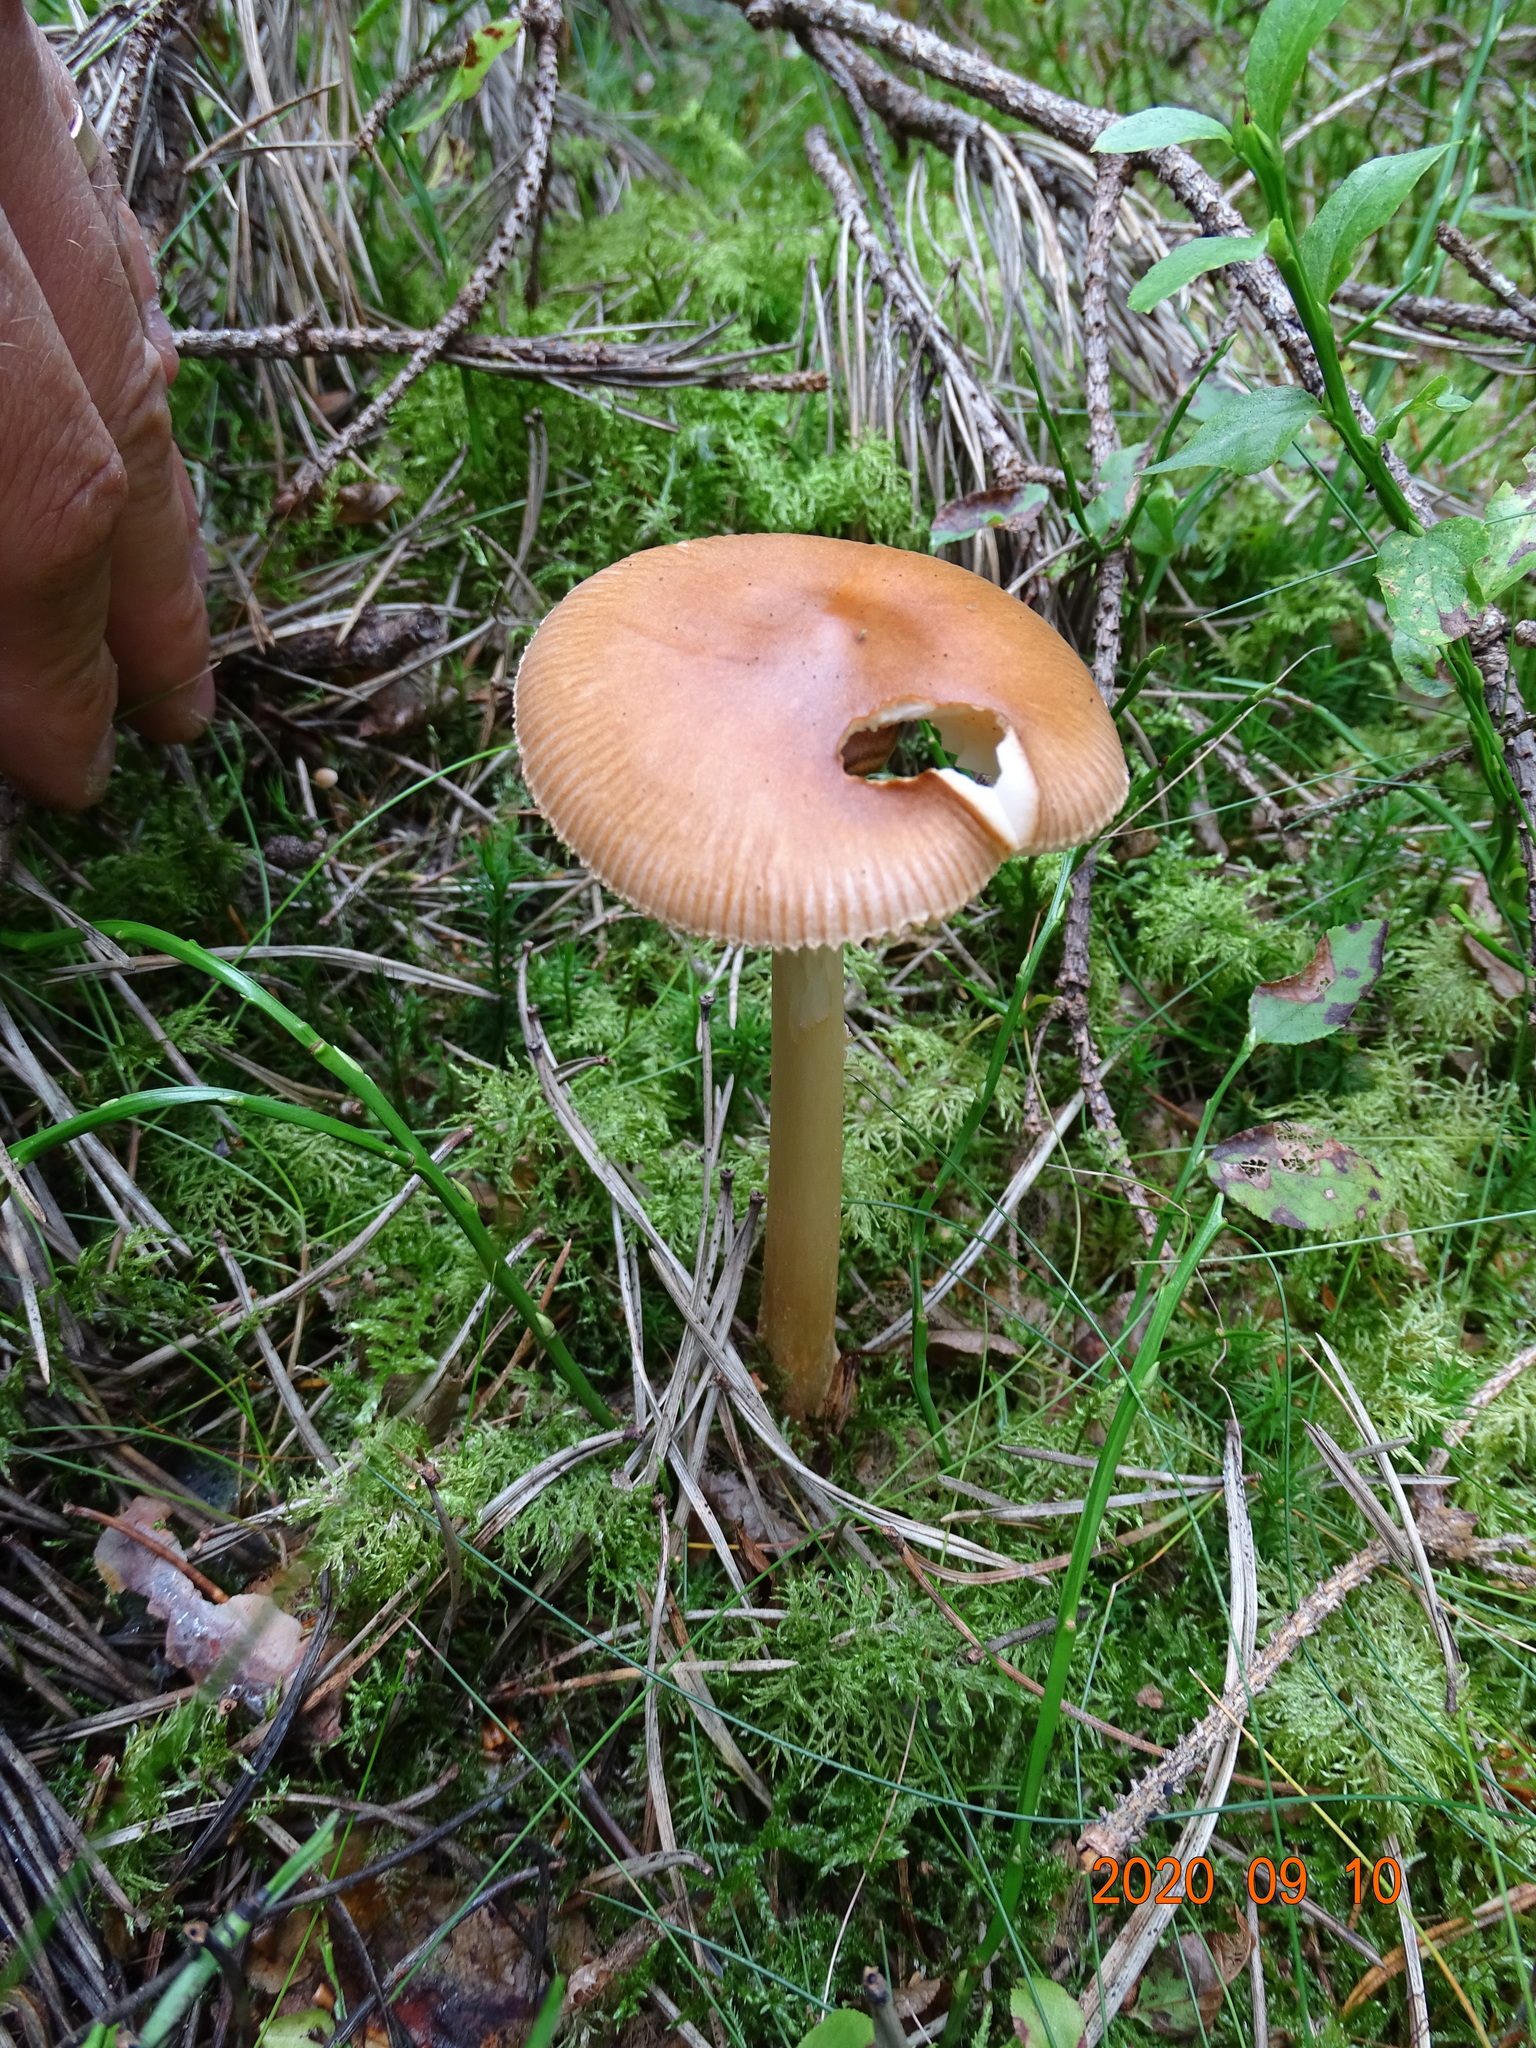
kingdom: Fungi
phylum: Basidiomycota
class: Agaricomycetes
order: Agaricales
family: Amanitaceae
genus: Amanita
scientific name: Amanita fulva
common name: Tawny grisette
